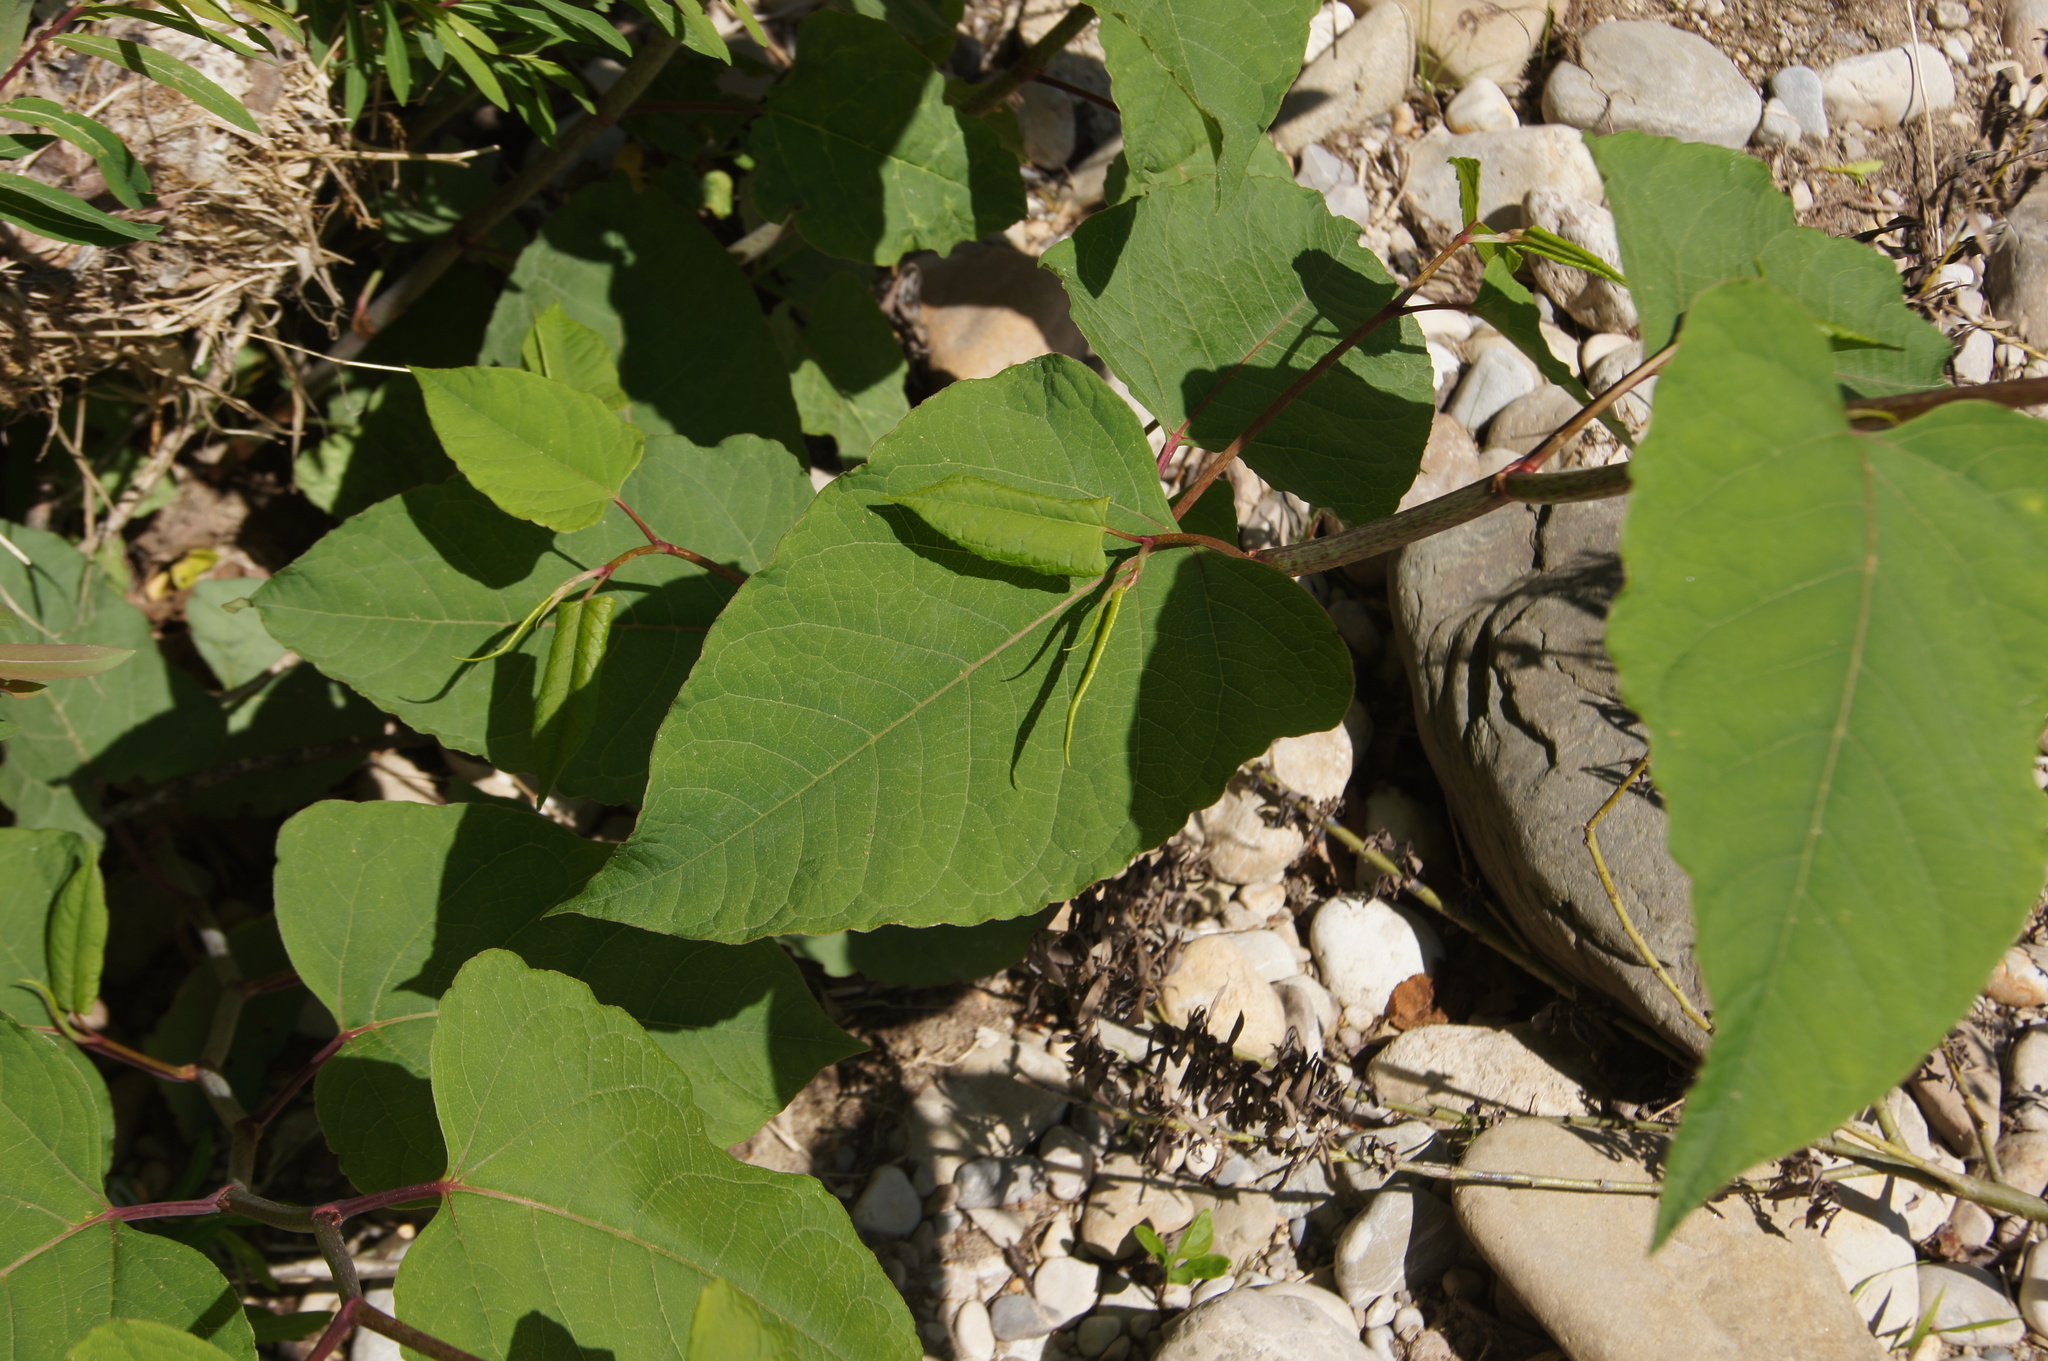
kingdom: Plantae
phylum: Tracheophyta
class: Magnoliopsida
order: Caryophyllales
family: Polygonaceae
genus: Reynoutria
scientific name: Reynoutria bohemica
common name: Bohemian knotweed
